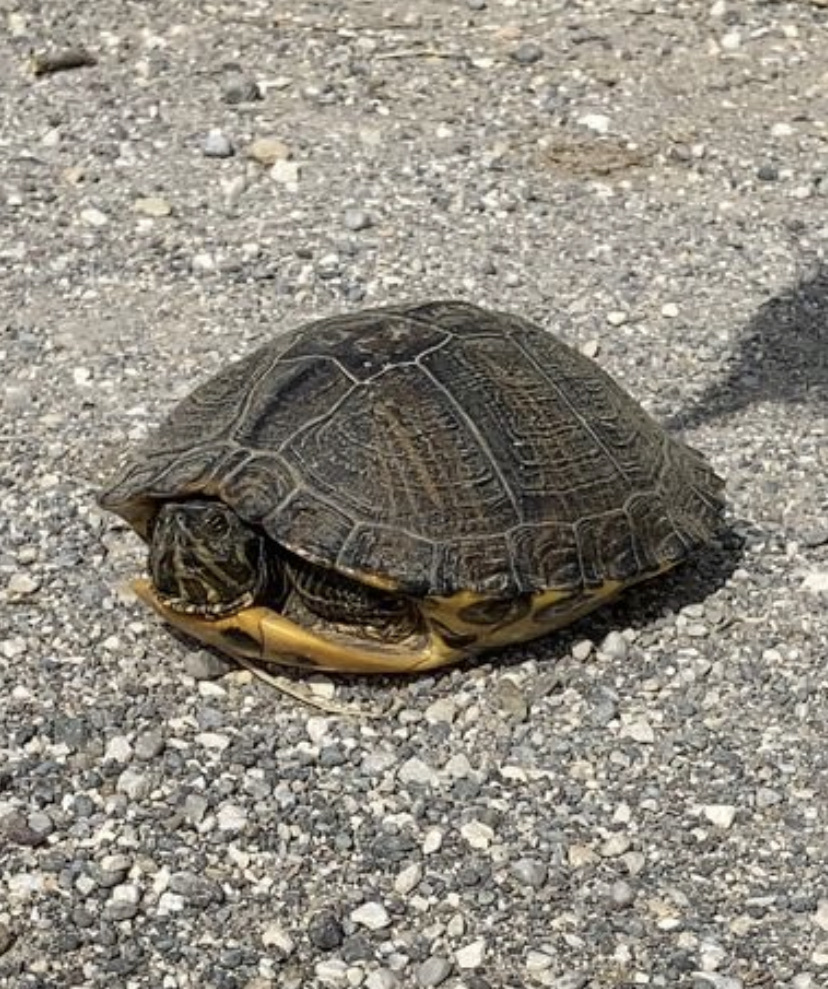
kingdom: Animalia
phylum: Chordata
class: Testudines
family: Emydidae
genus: Trachemys
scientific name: Trachemys scripta
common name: Slider
